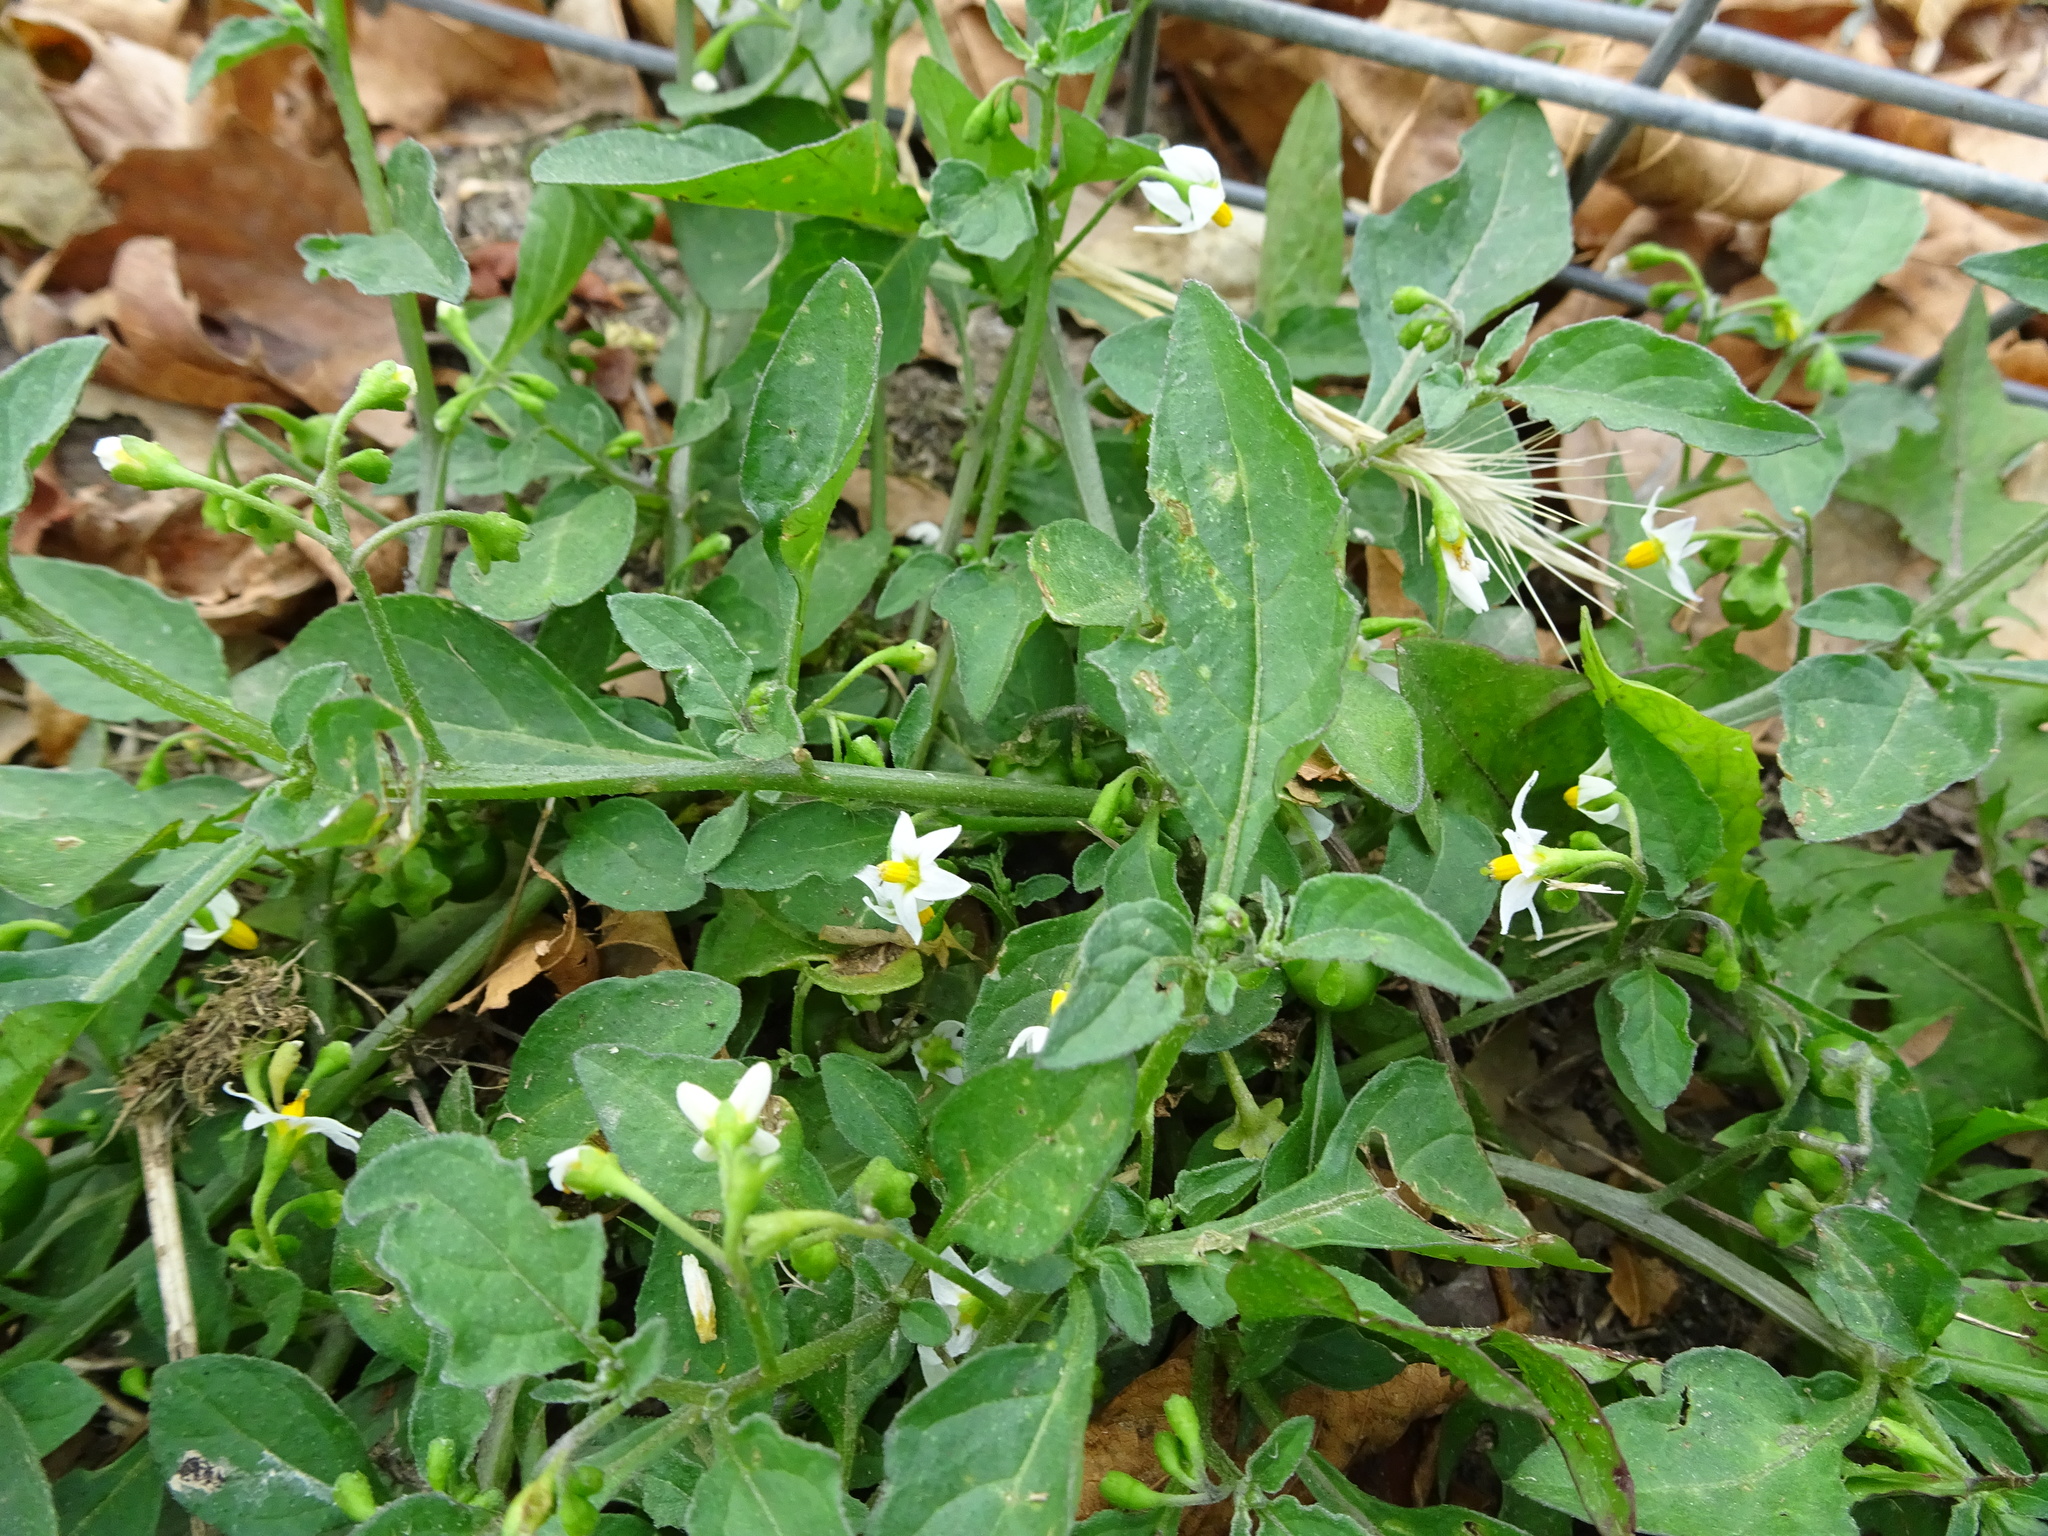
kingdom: Plantae
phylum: Tracheophyta
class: Magnoliopsida
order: Solanales
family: Solanaceae
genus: Solanum
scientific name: Solanum nigrum
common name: Black nightshade
